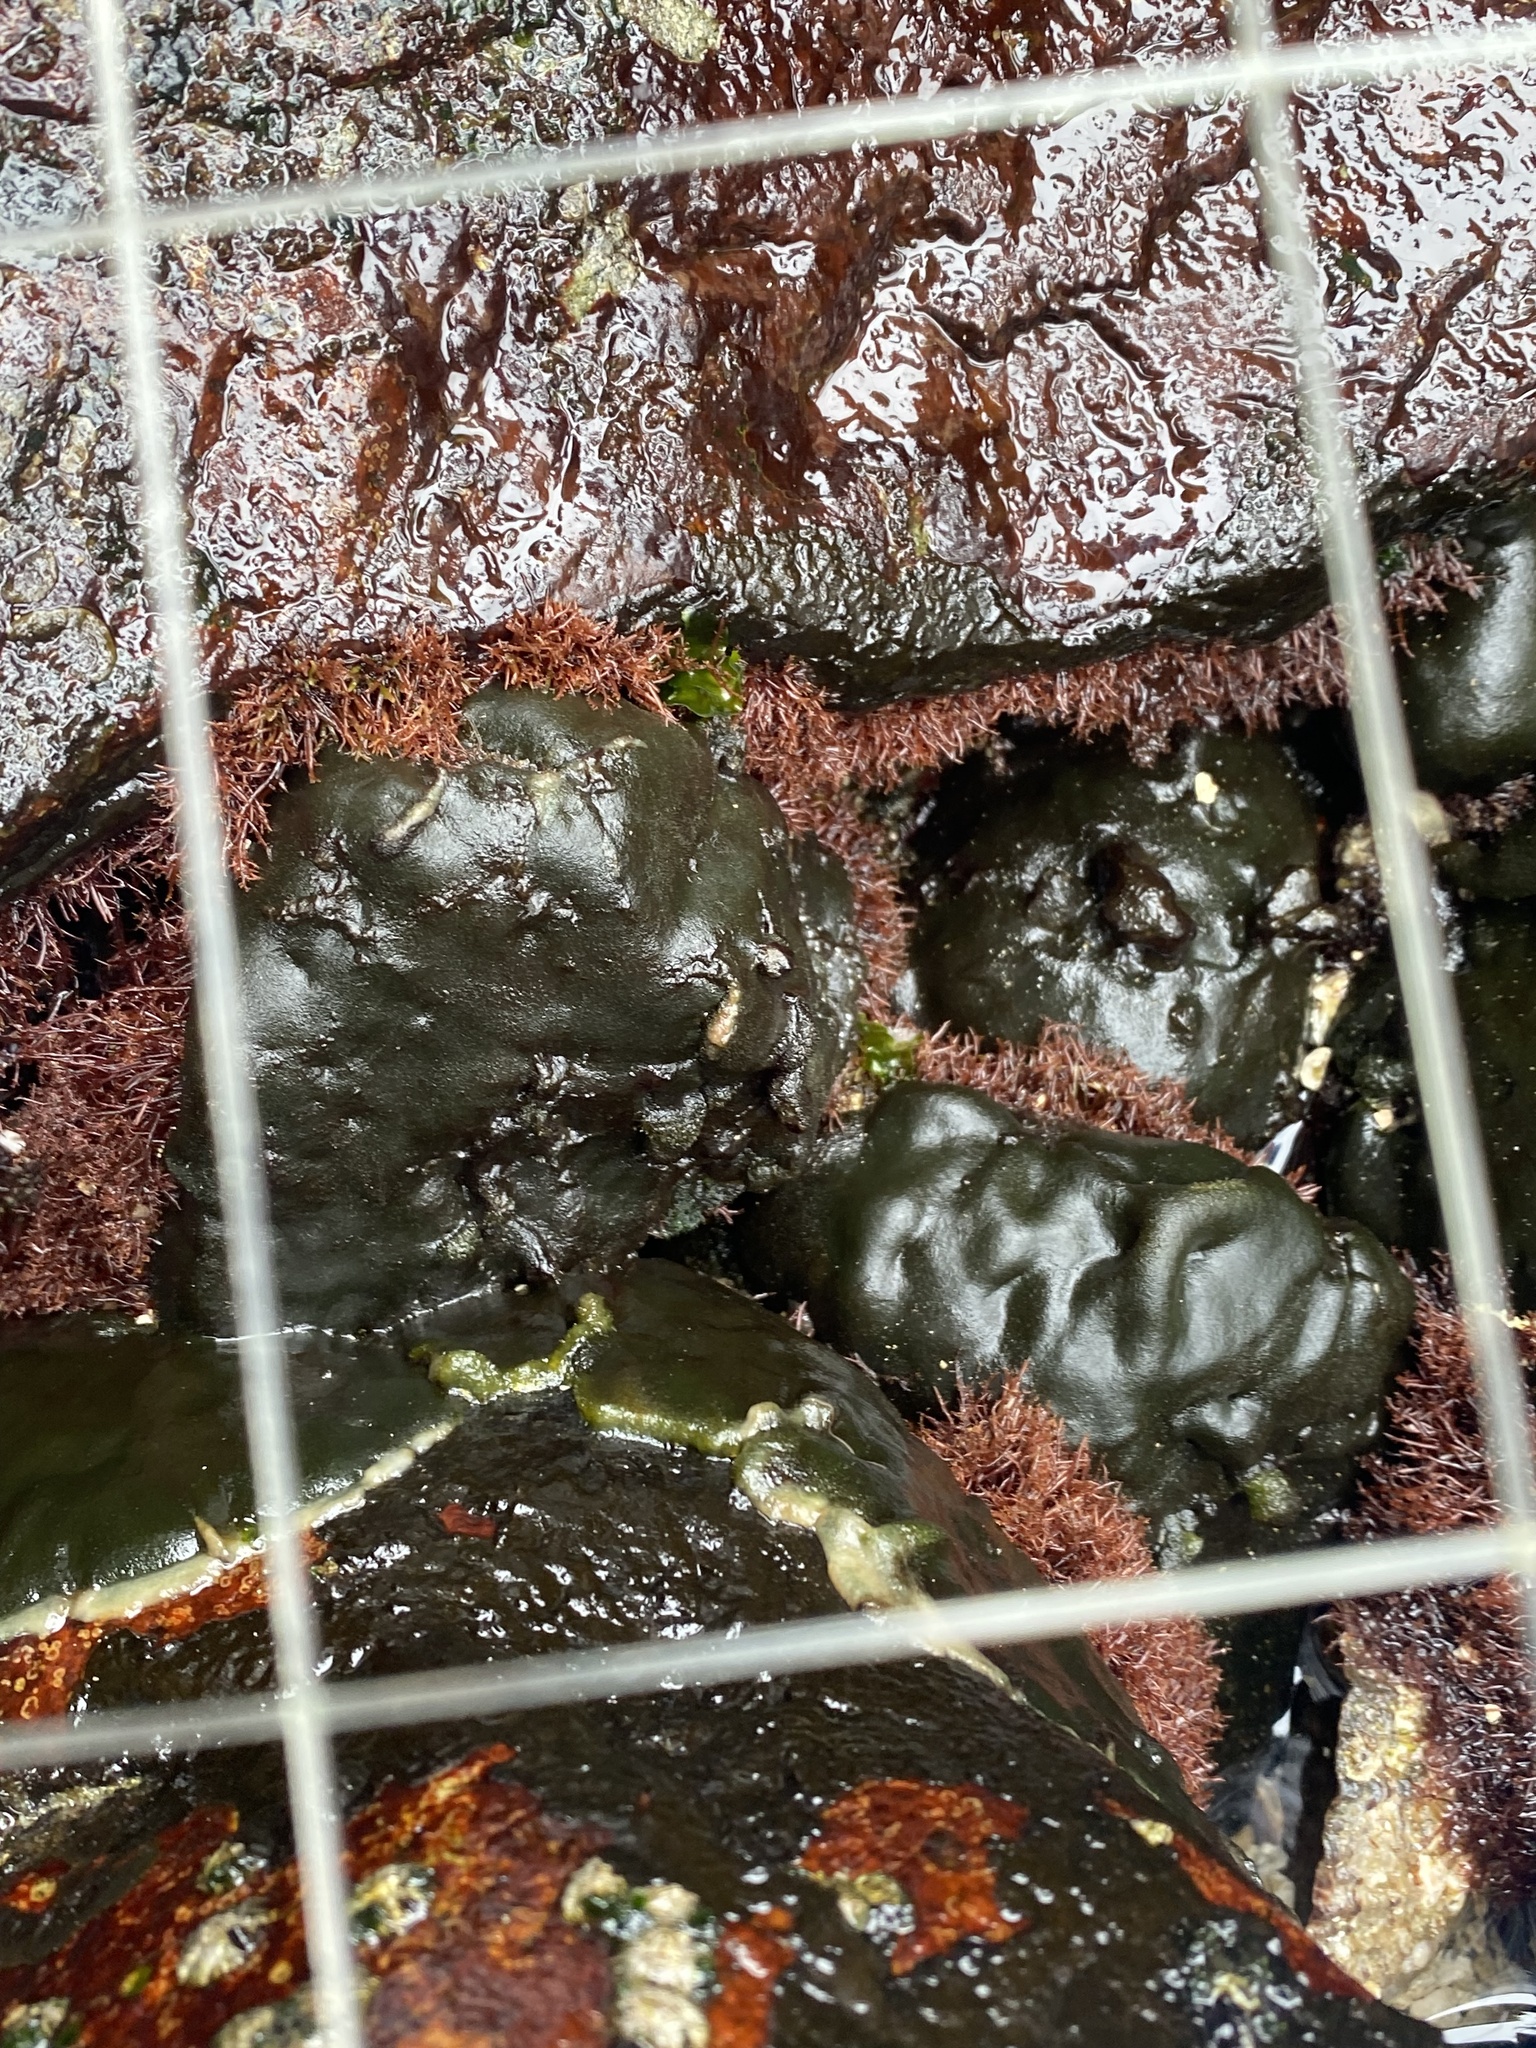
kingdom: Plantae
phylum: Chlorophyta
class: Ulvophyceae
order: Bryopsidales
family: Codiaceae
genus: Codium
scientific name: Codium
